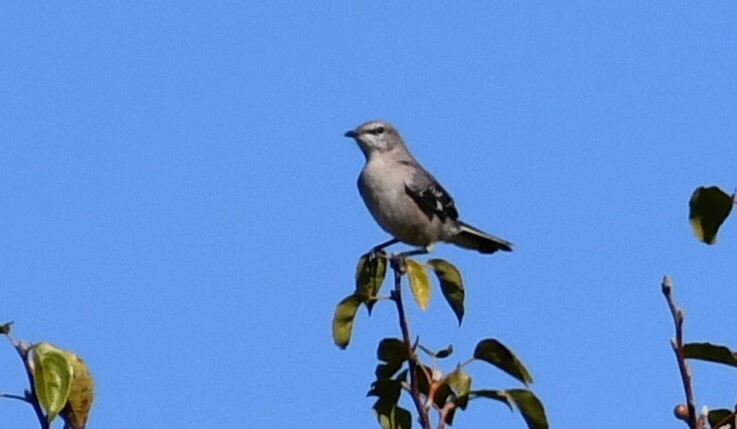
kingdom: Animalia
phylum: Chordata
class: Aves
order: Passeriformes
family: Mimidae
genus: Mimus
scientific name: Mimus polyglottos
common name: Northern mockingbird
